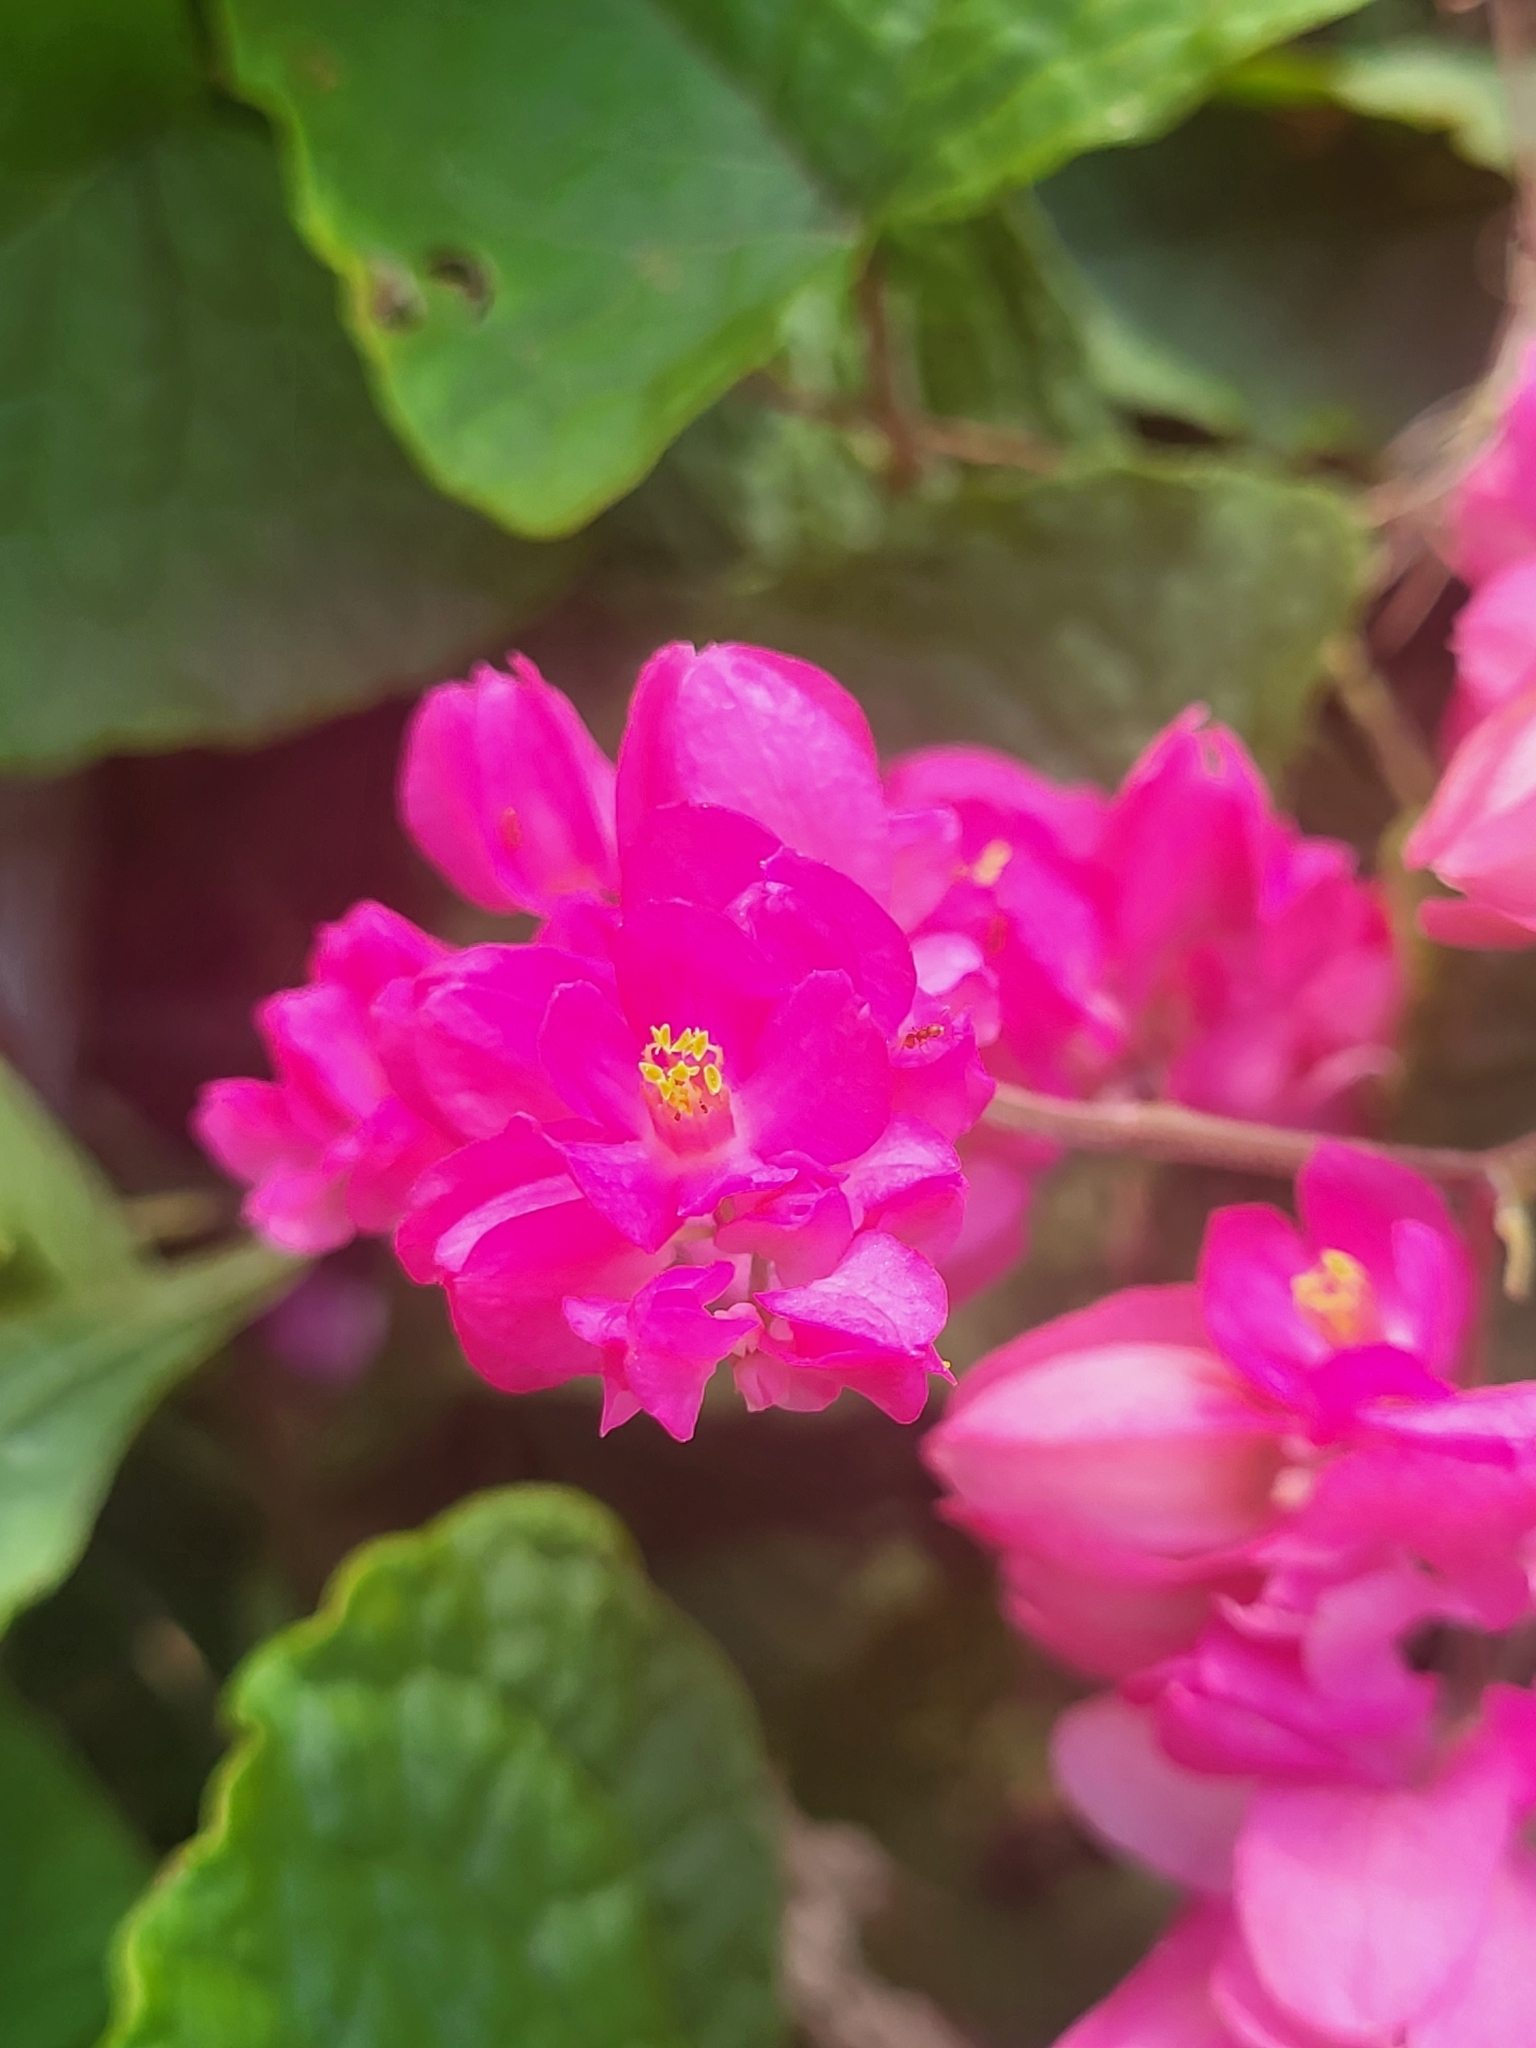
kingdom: Plantae
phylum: Tracheophyta
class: Magnoliopsida
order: Caryophyllales
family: Polygonaceae
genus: Antigonon
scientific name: Antigonon leptopus
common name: Coral vine
